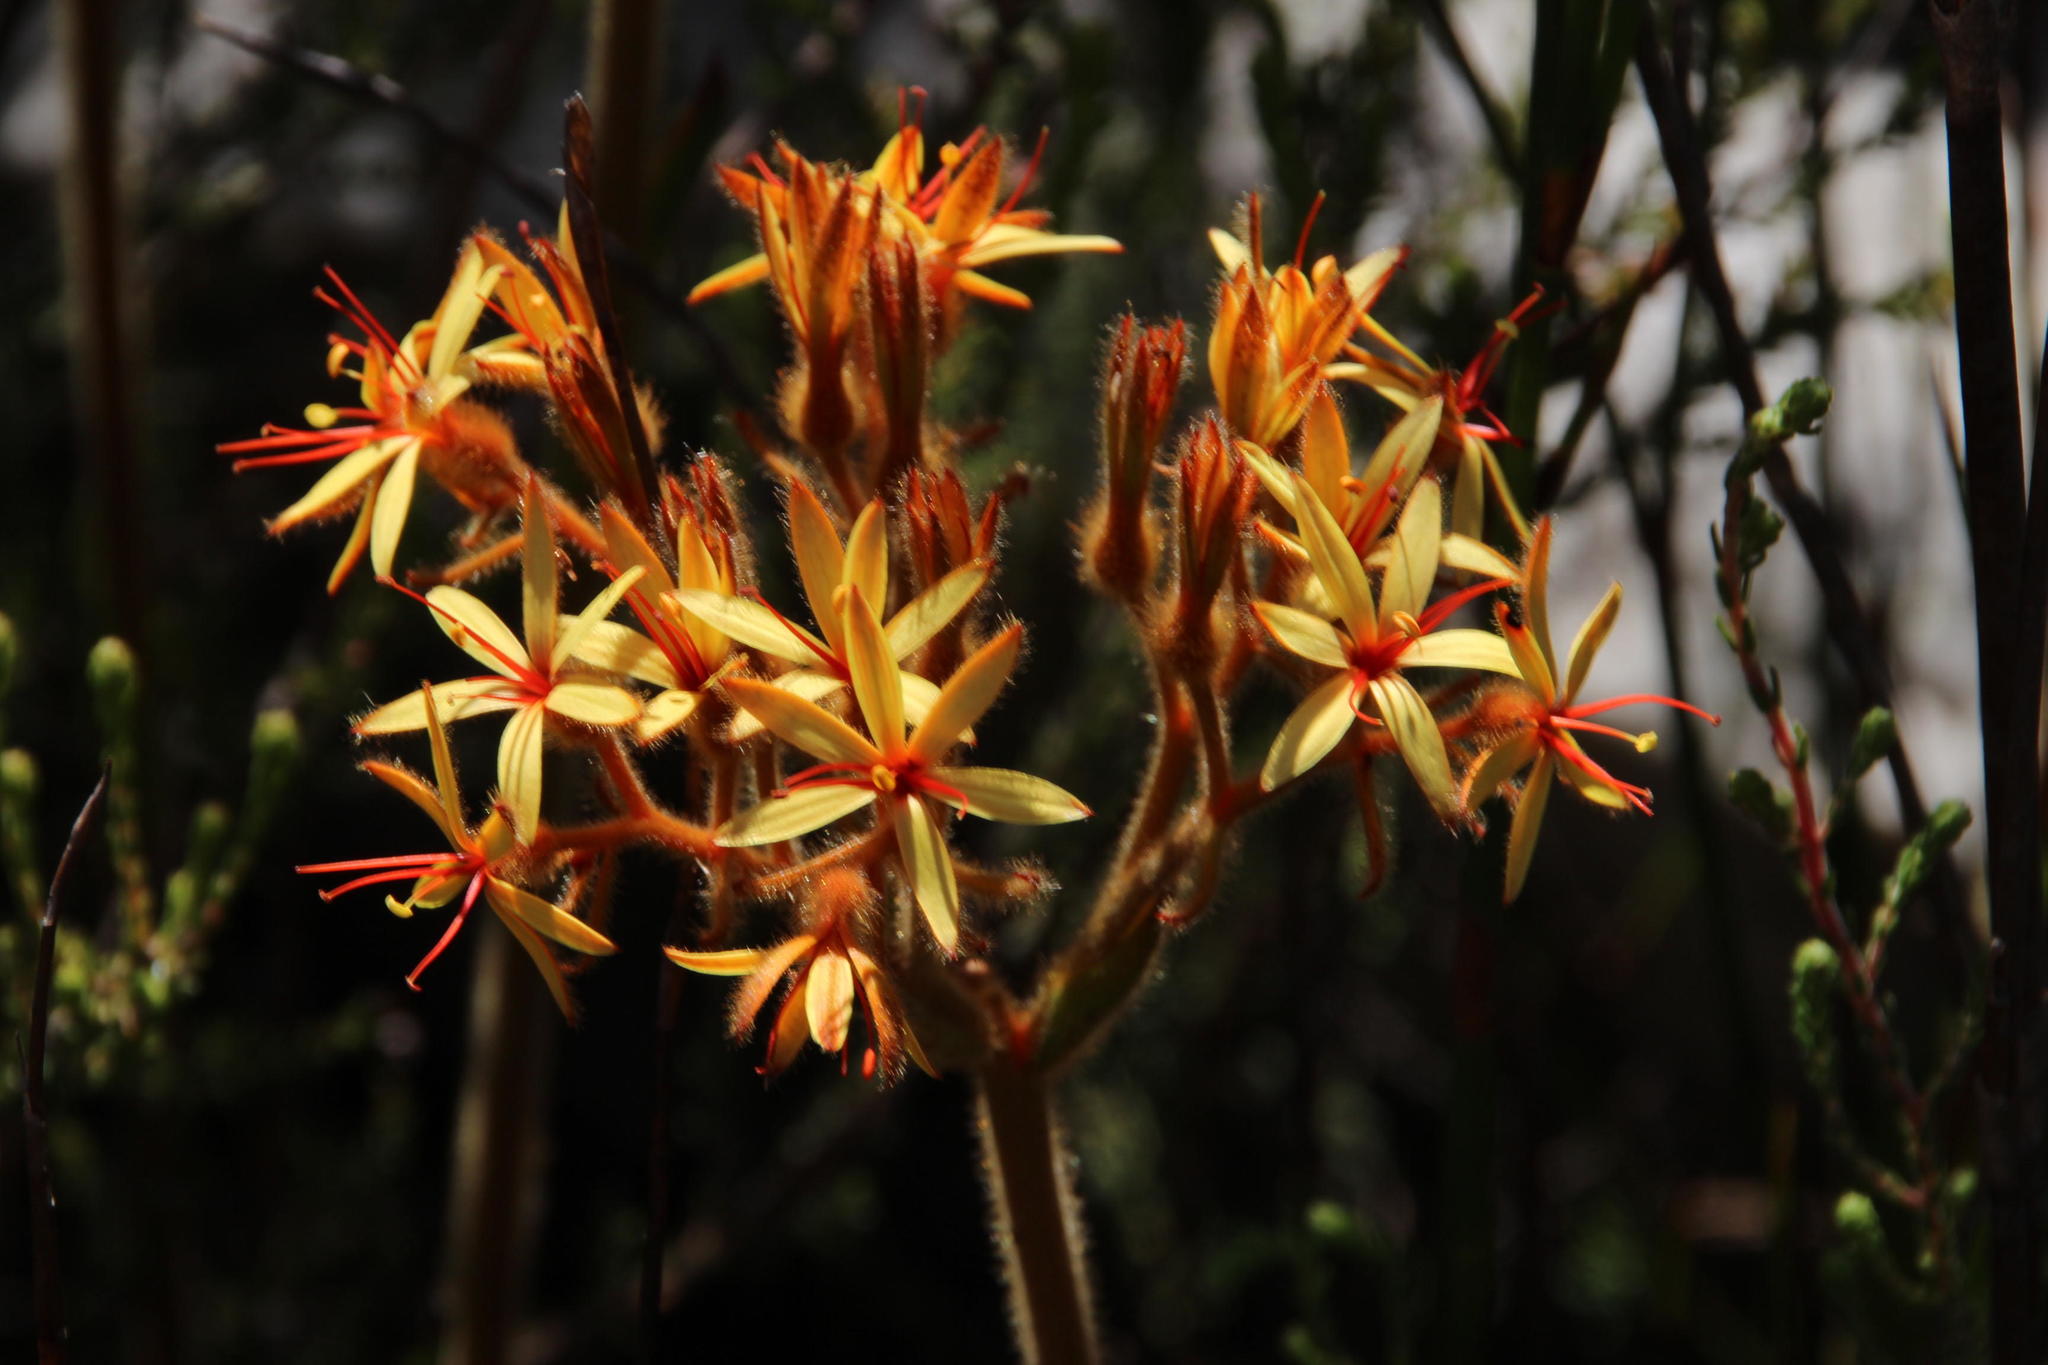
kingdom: Plantae
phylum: Tracheophyta
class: Liliopsida
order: Commelinales
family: Haemodoraceae
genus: Dilatris
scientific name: Dilatris viscosa
